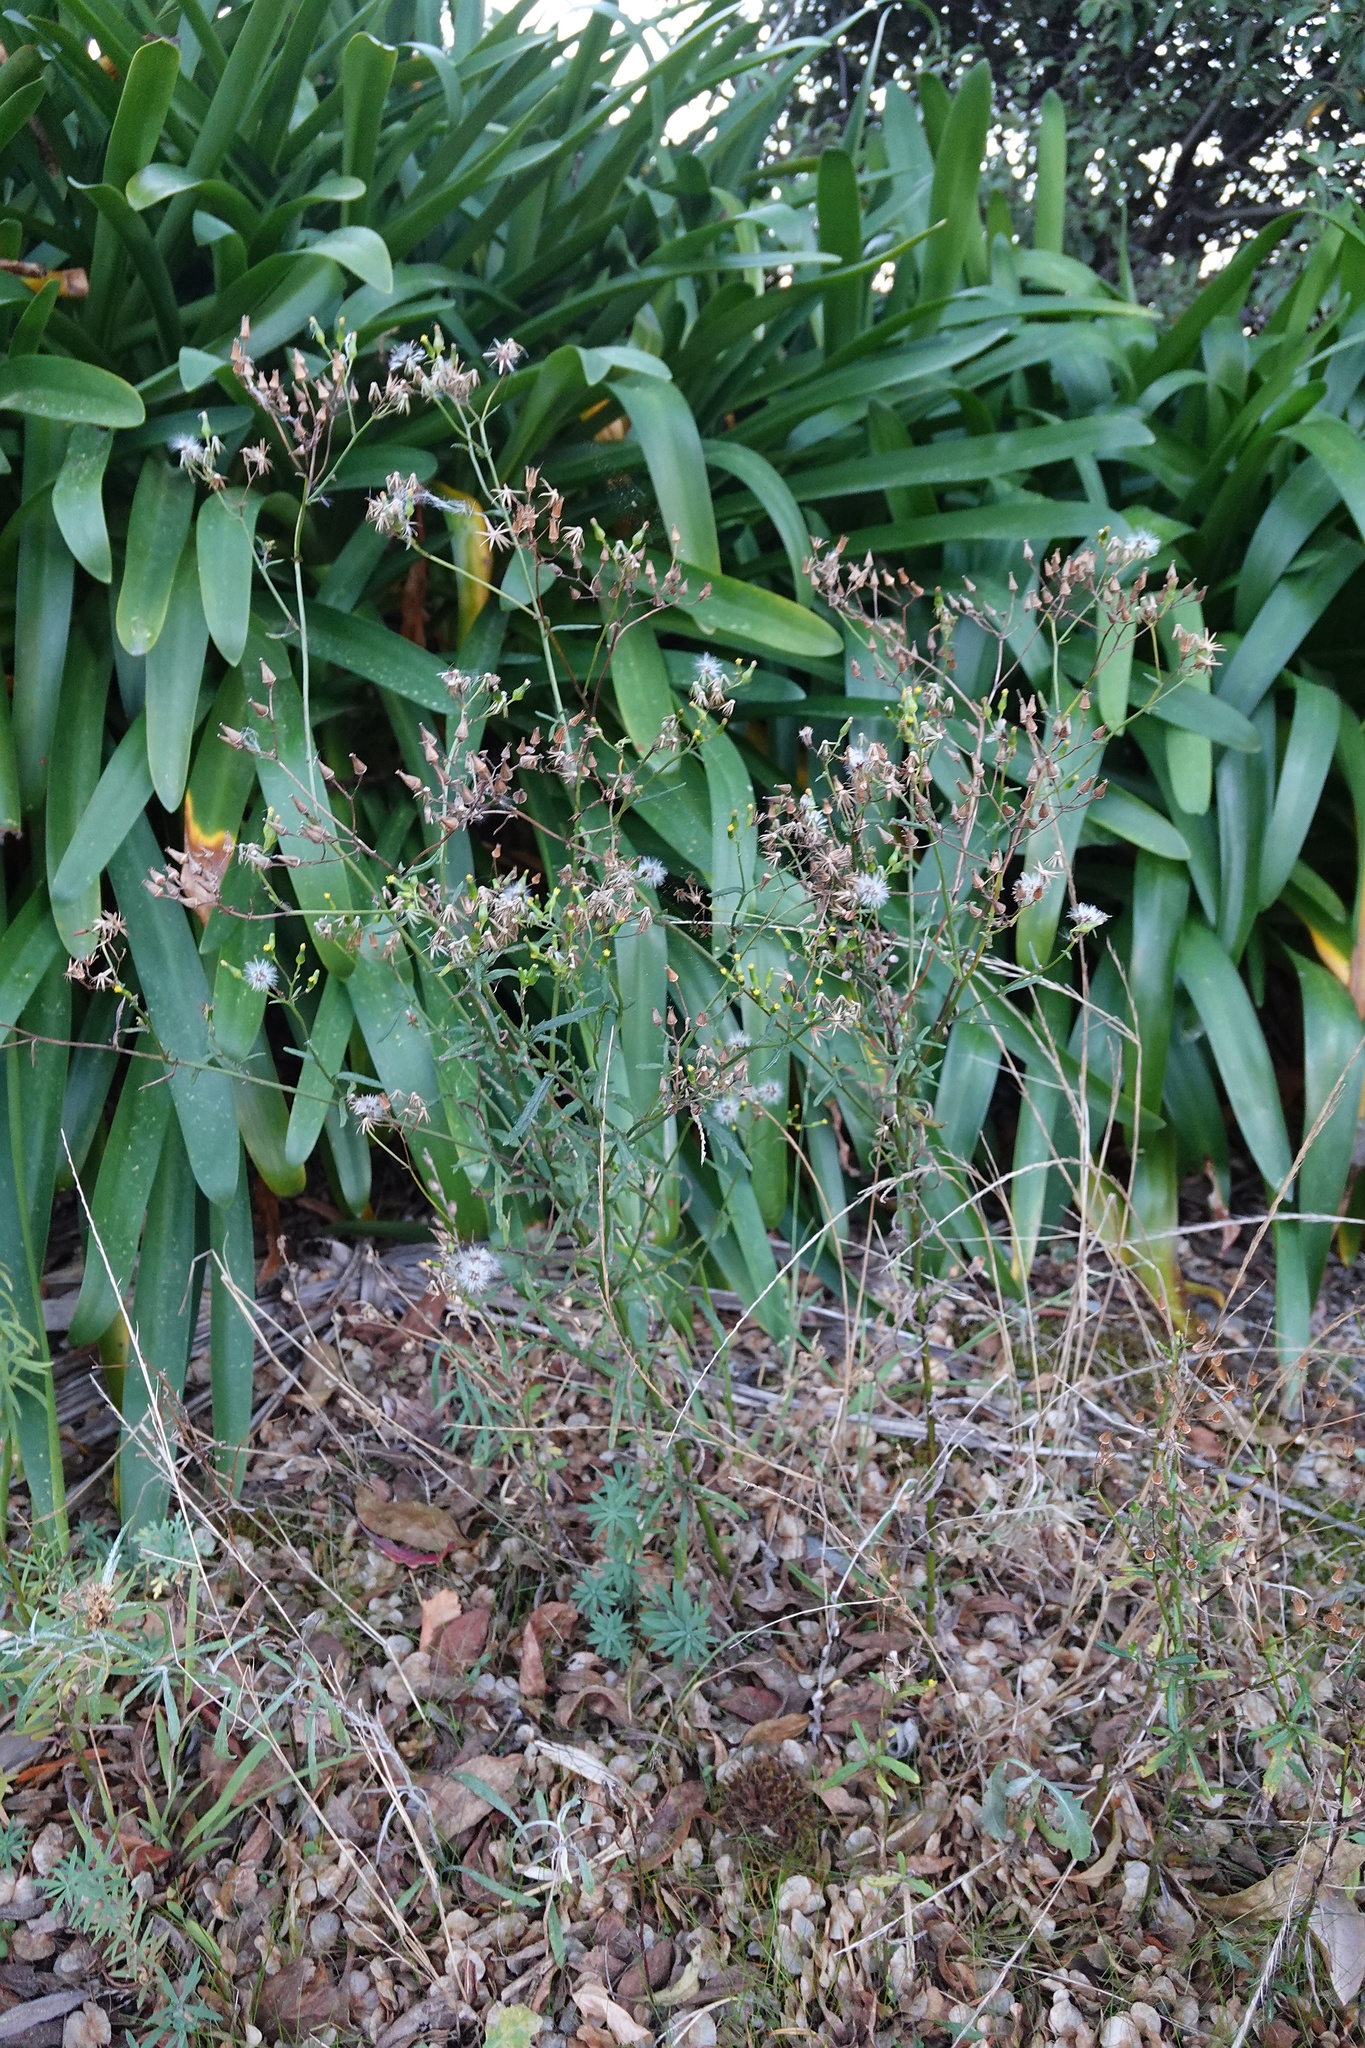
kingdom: Plantae
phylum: Tracheophyta
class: Magnoliopsida
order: Asterales
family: Asteraceae
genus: Senecio
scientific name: Senecio hispidulus
